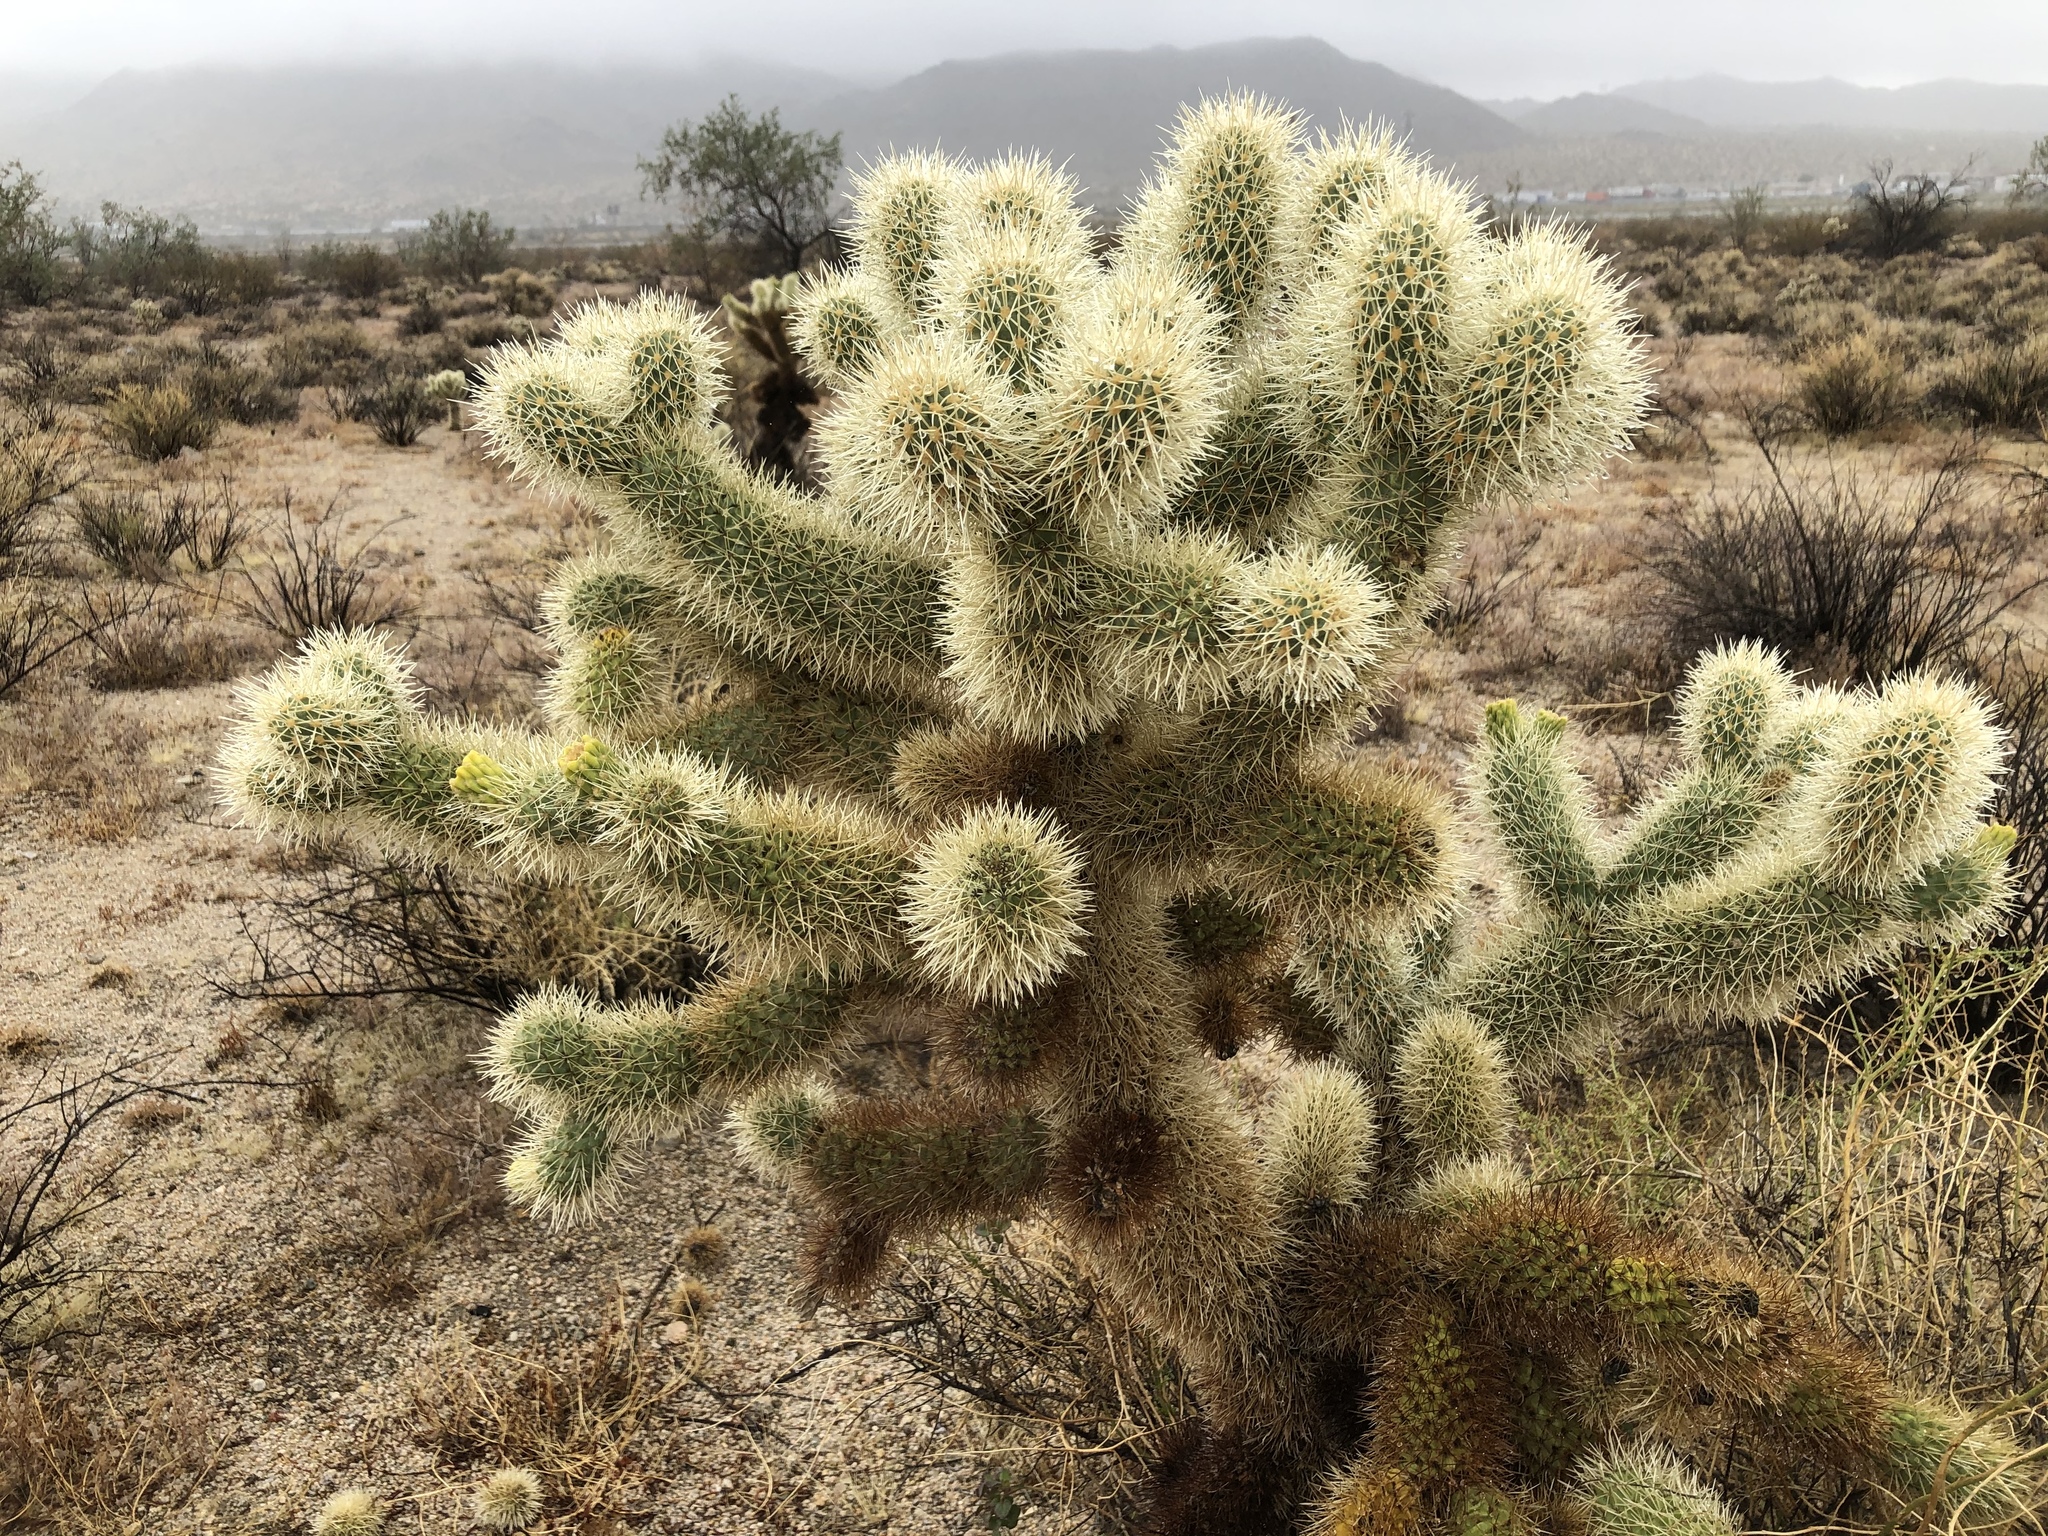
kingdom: Plantae
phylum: Tracheophyta
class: Magnoliopsida
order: Caryophyllales
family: Cactaceae
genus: Cylindropuntia
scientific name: Cylindropuntia fosbergii
